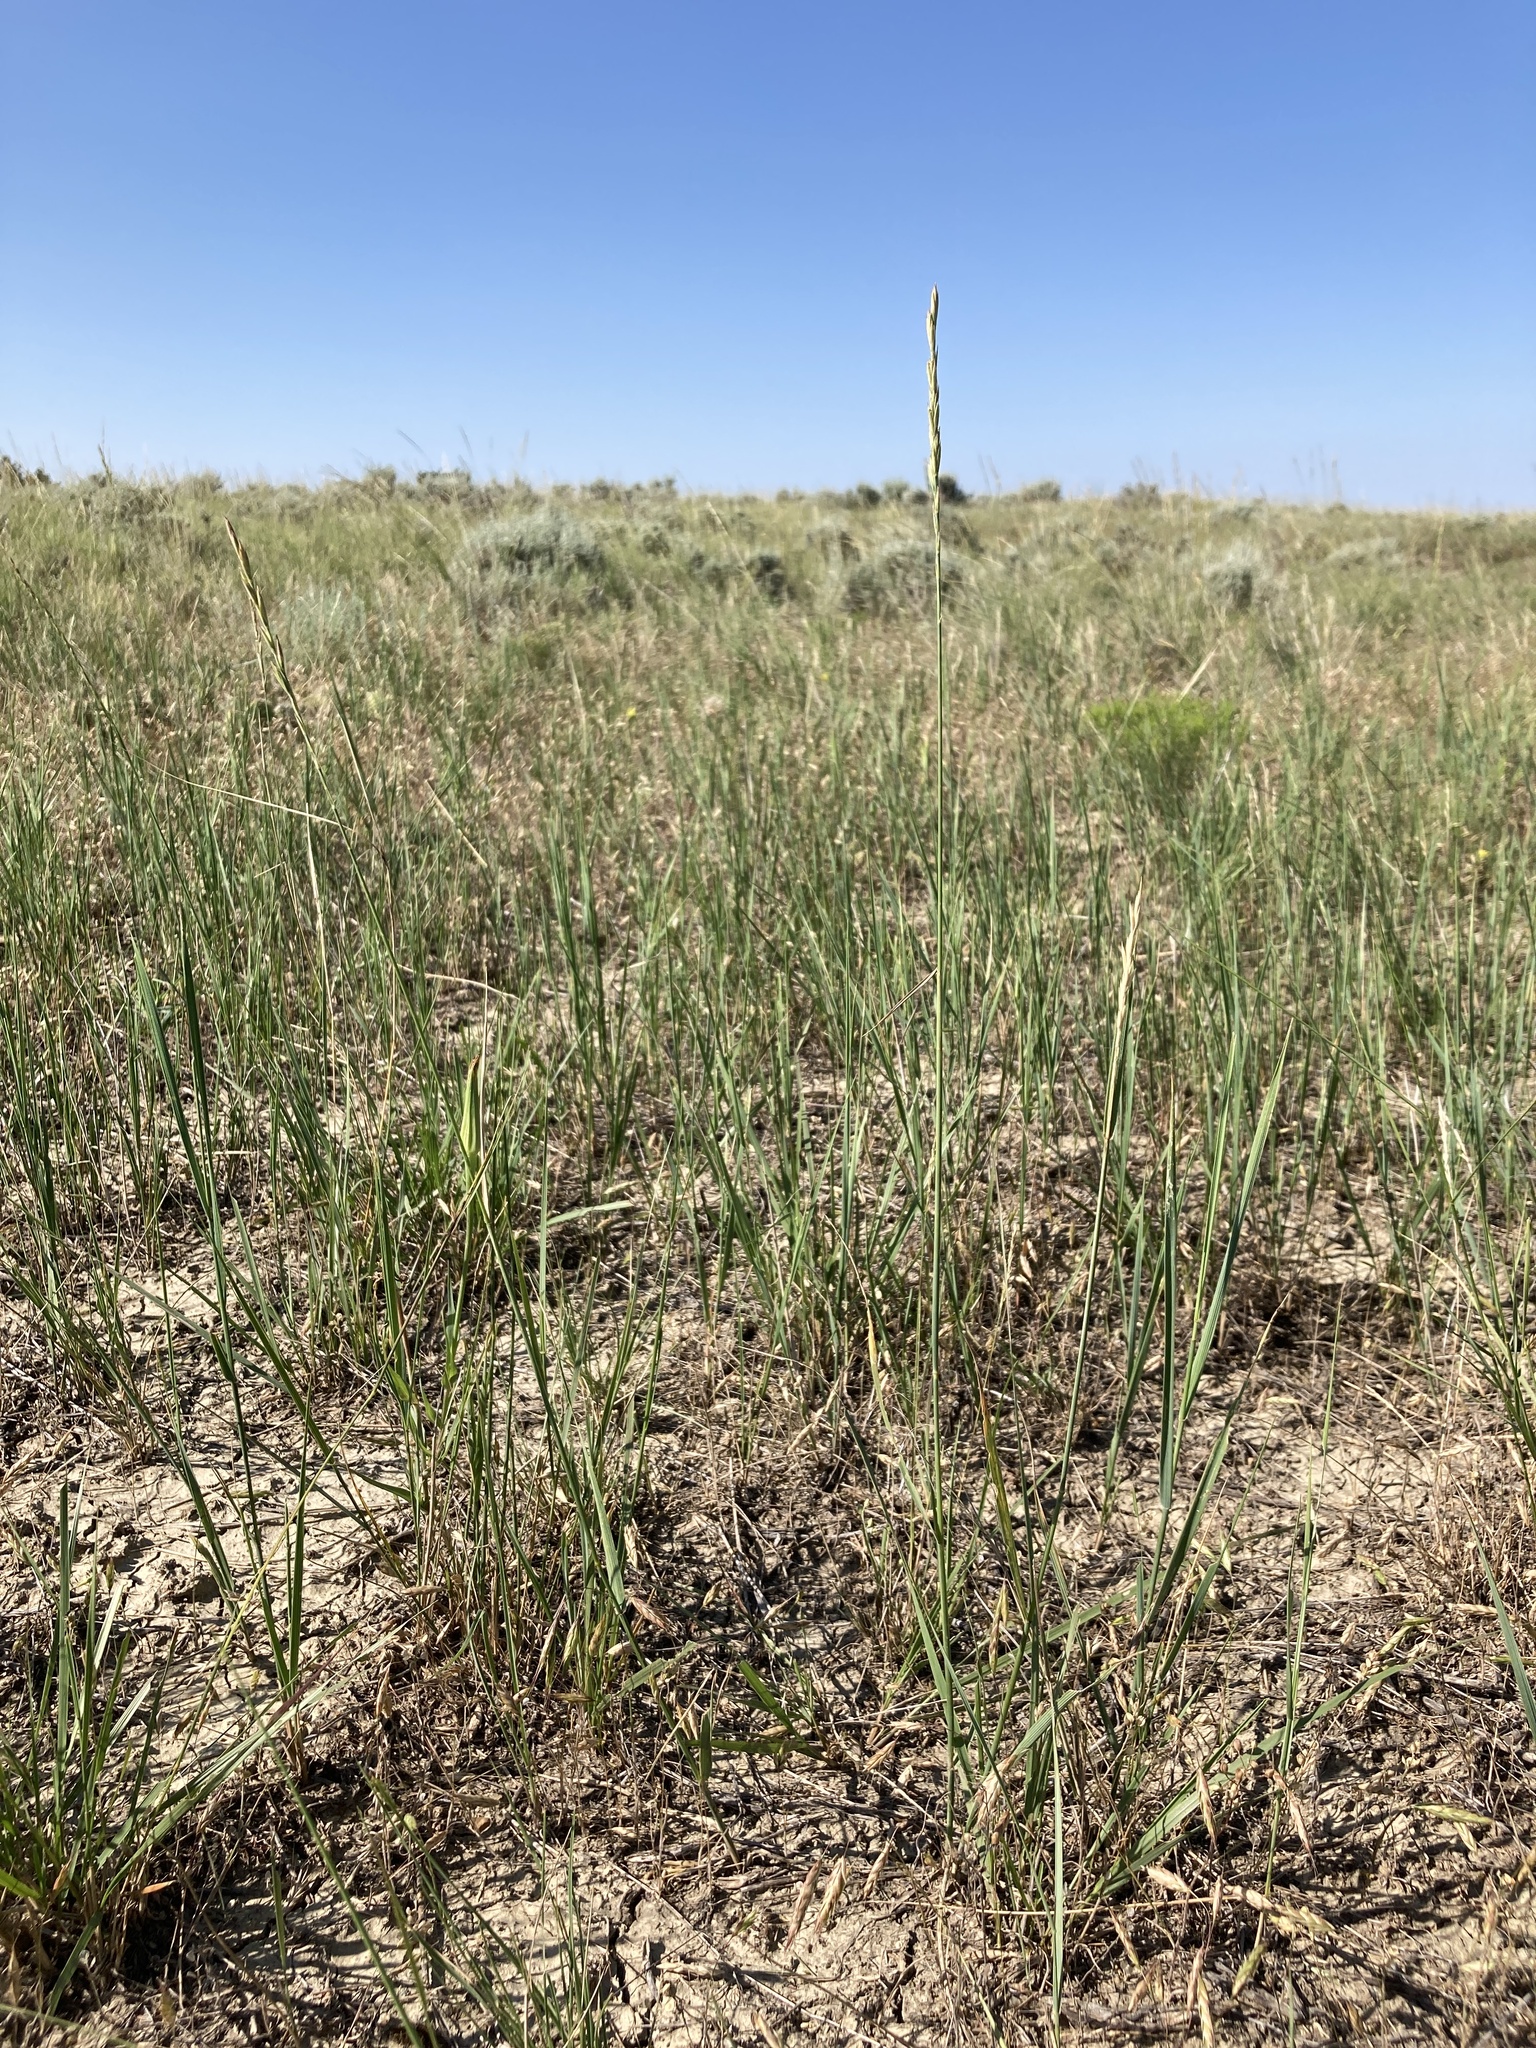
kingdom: Plantae
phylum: Tracheophyta
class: Liliopsida
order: Poales
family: Poaceae
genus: Elymus
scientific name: Elymus smithii
